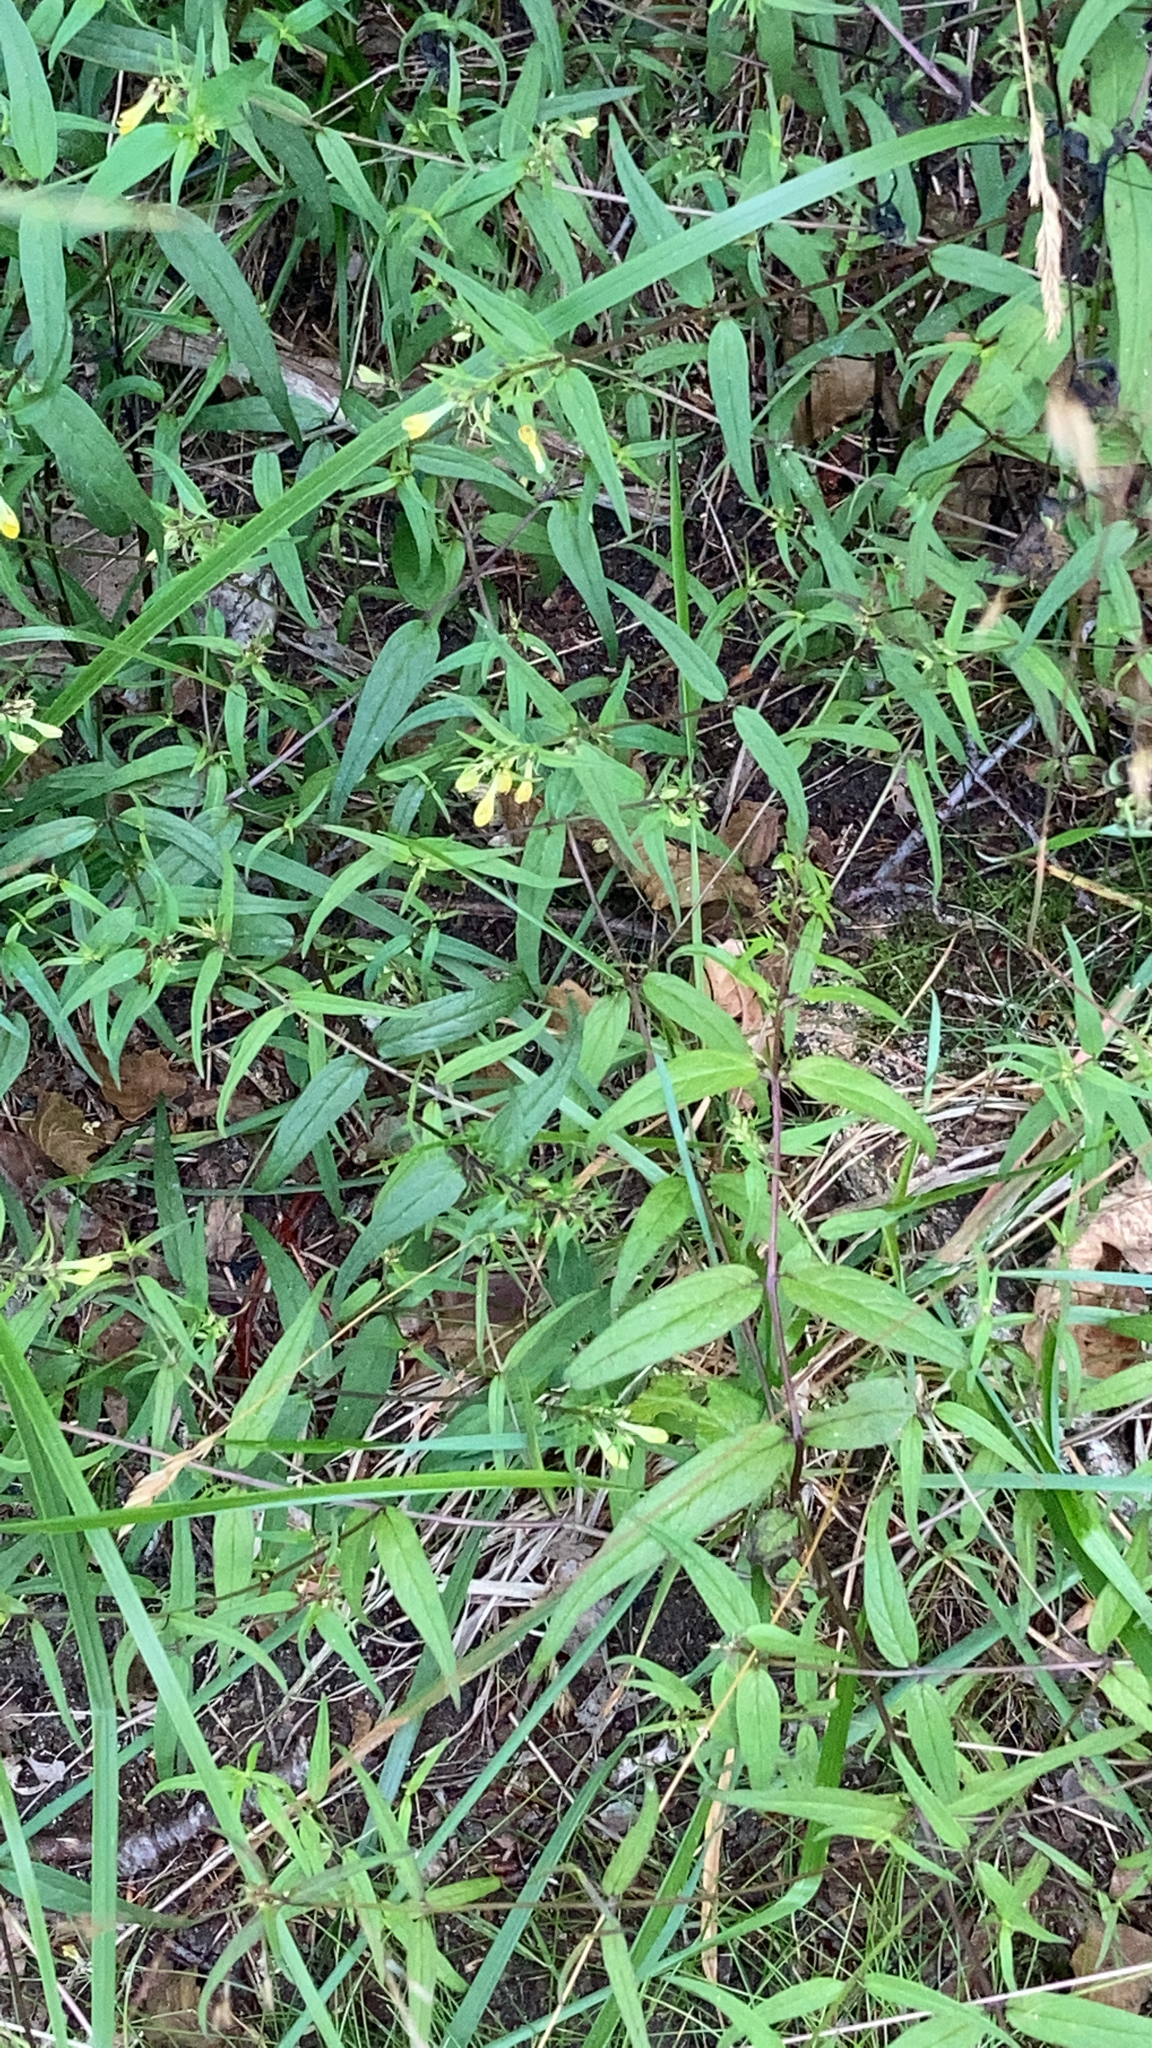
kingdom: Plantae
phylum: Tracheophyta
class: Magnoliopsida
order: Lamiales
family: Orobanchaceae
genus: Melampyrum
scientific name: Melampyrum pratense
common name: Common cow-wheat
